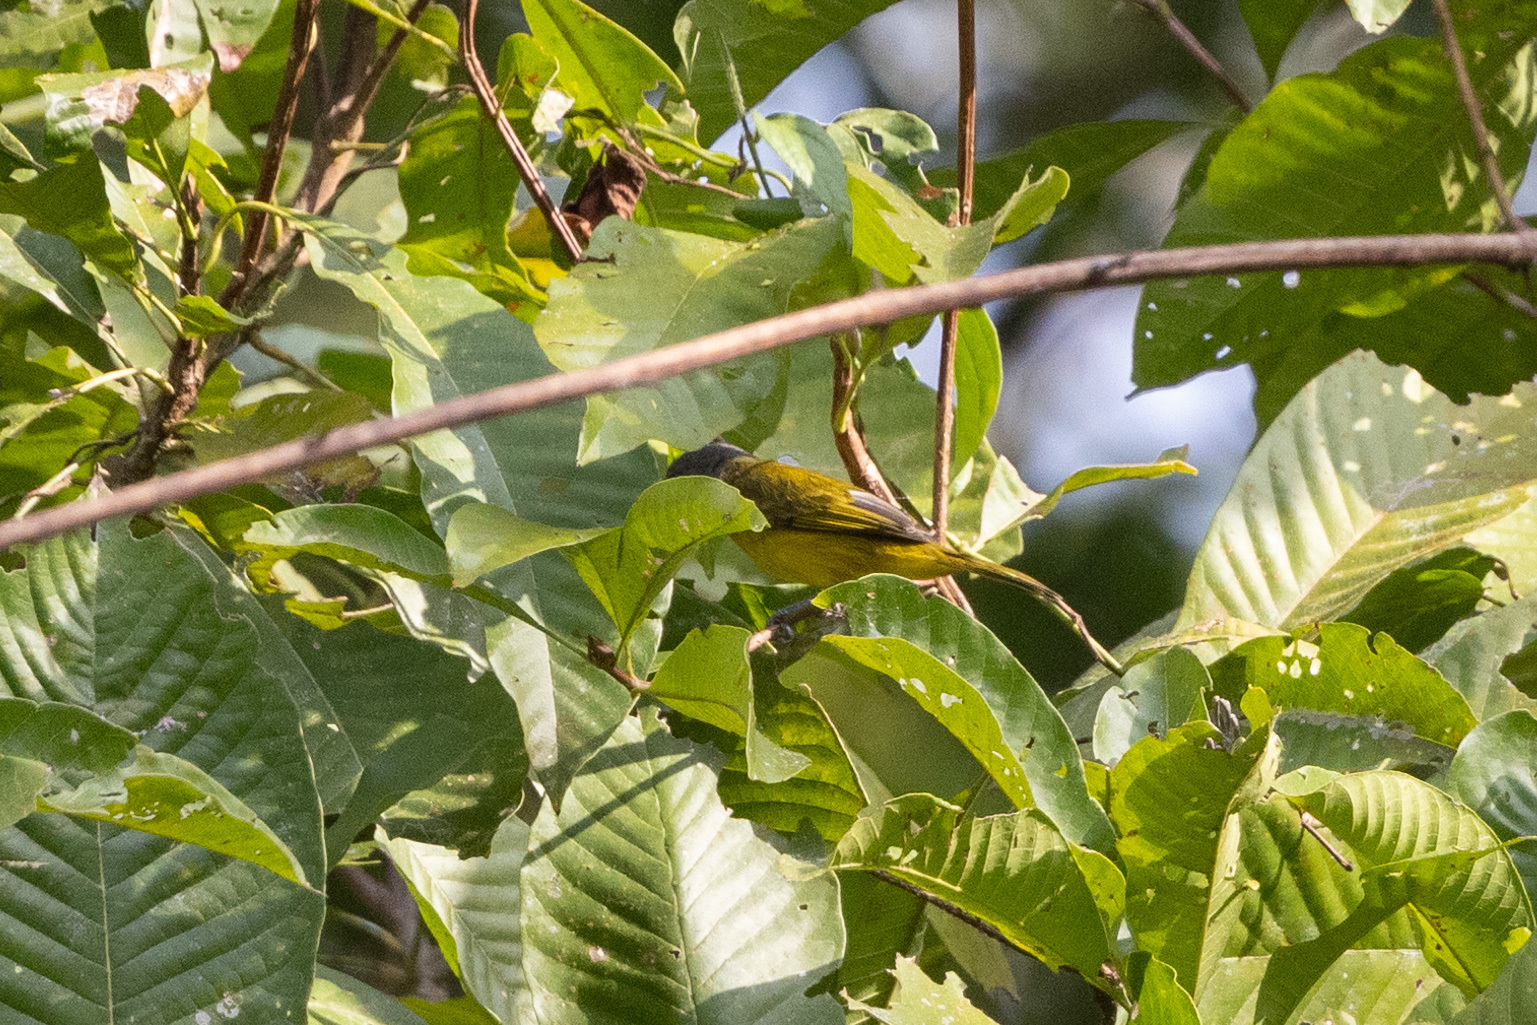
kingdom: Animalia
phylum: Chordata
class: Aves
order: Passeriformes
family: Thraupidae
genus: Loriotus
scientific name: Loriotus luctuosus
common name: White-shouldered tanager
